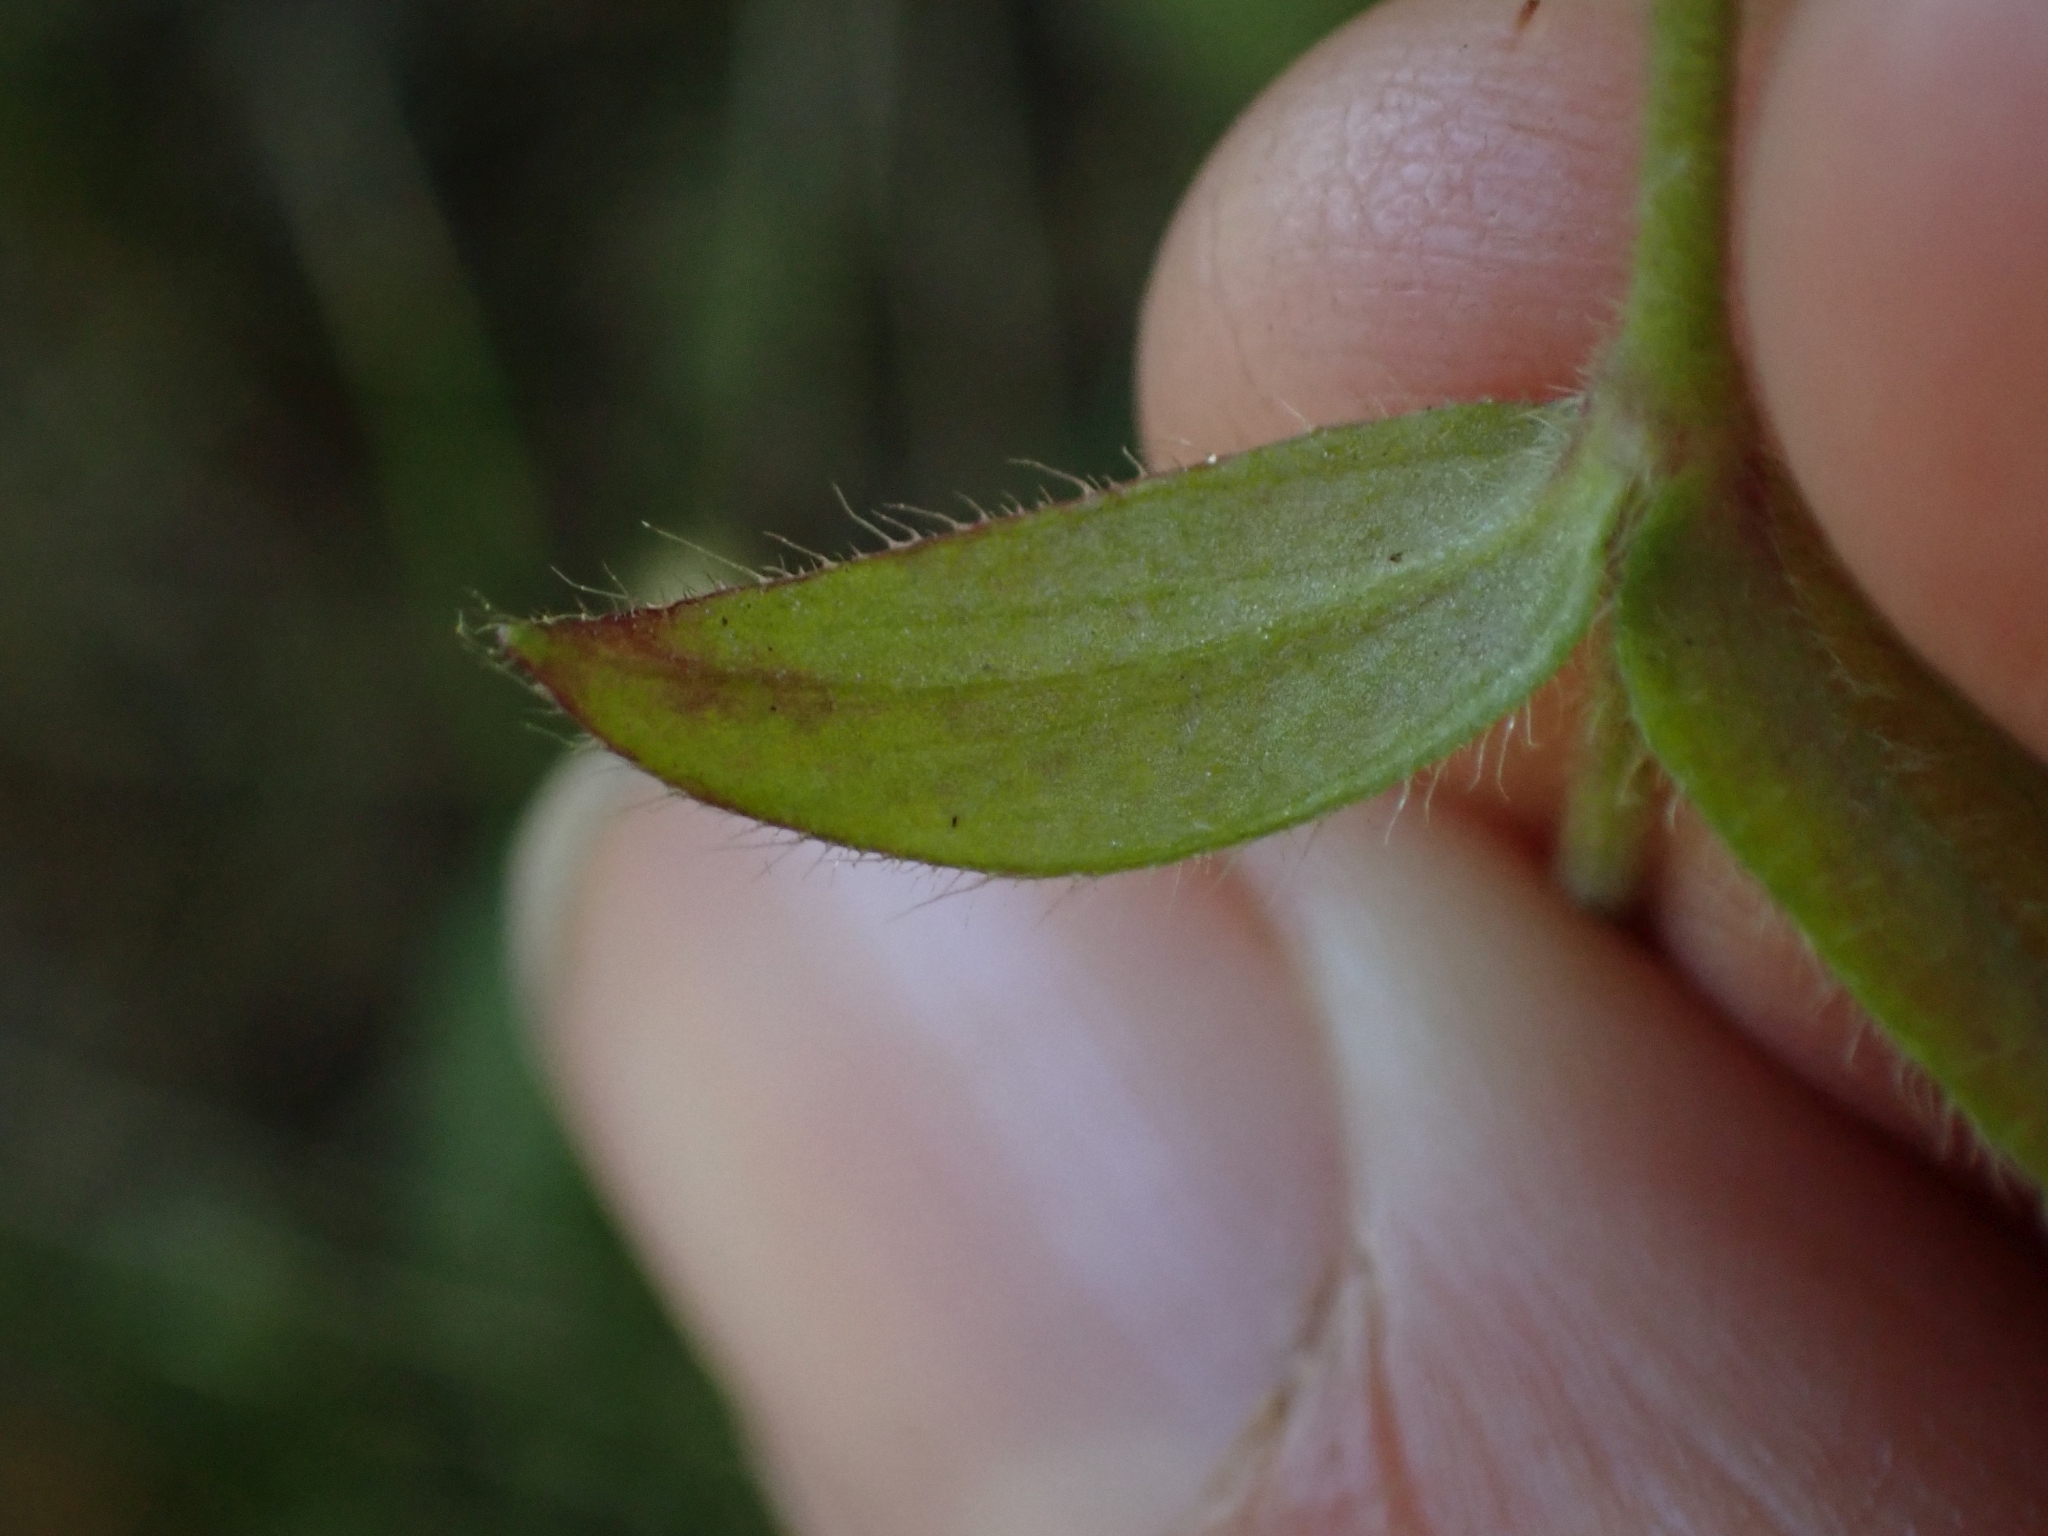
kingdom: Plantae
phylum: Tracheophyta
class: Magnoliopsida
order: Caryophyllales
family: Caryophyllaceae
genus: Cerastium
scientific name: Cerastium fontanum
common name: Common mouse-ear
